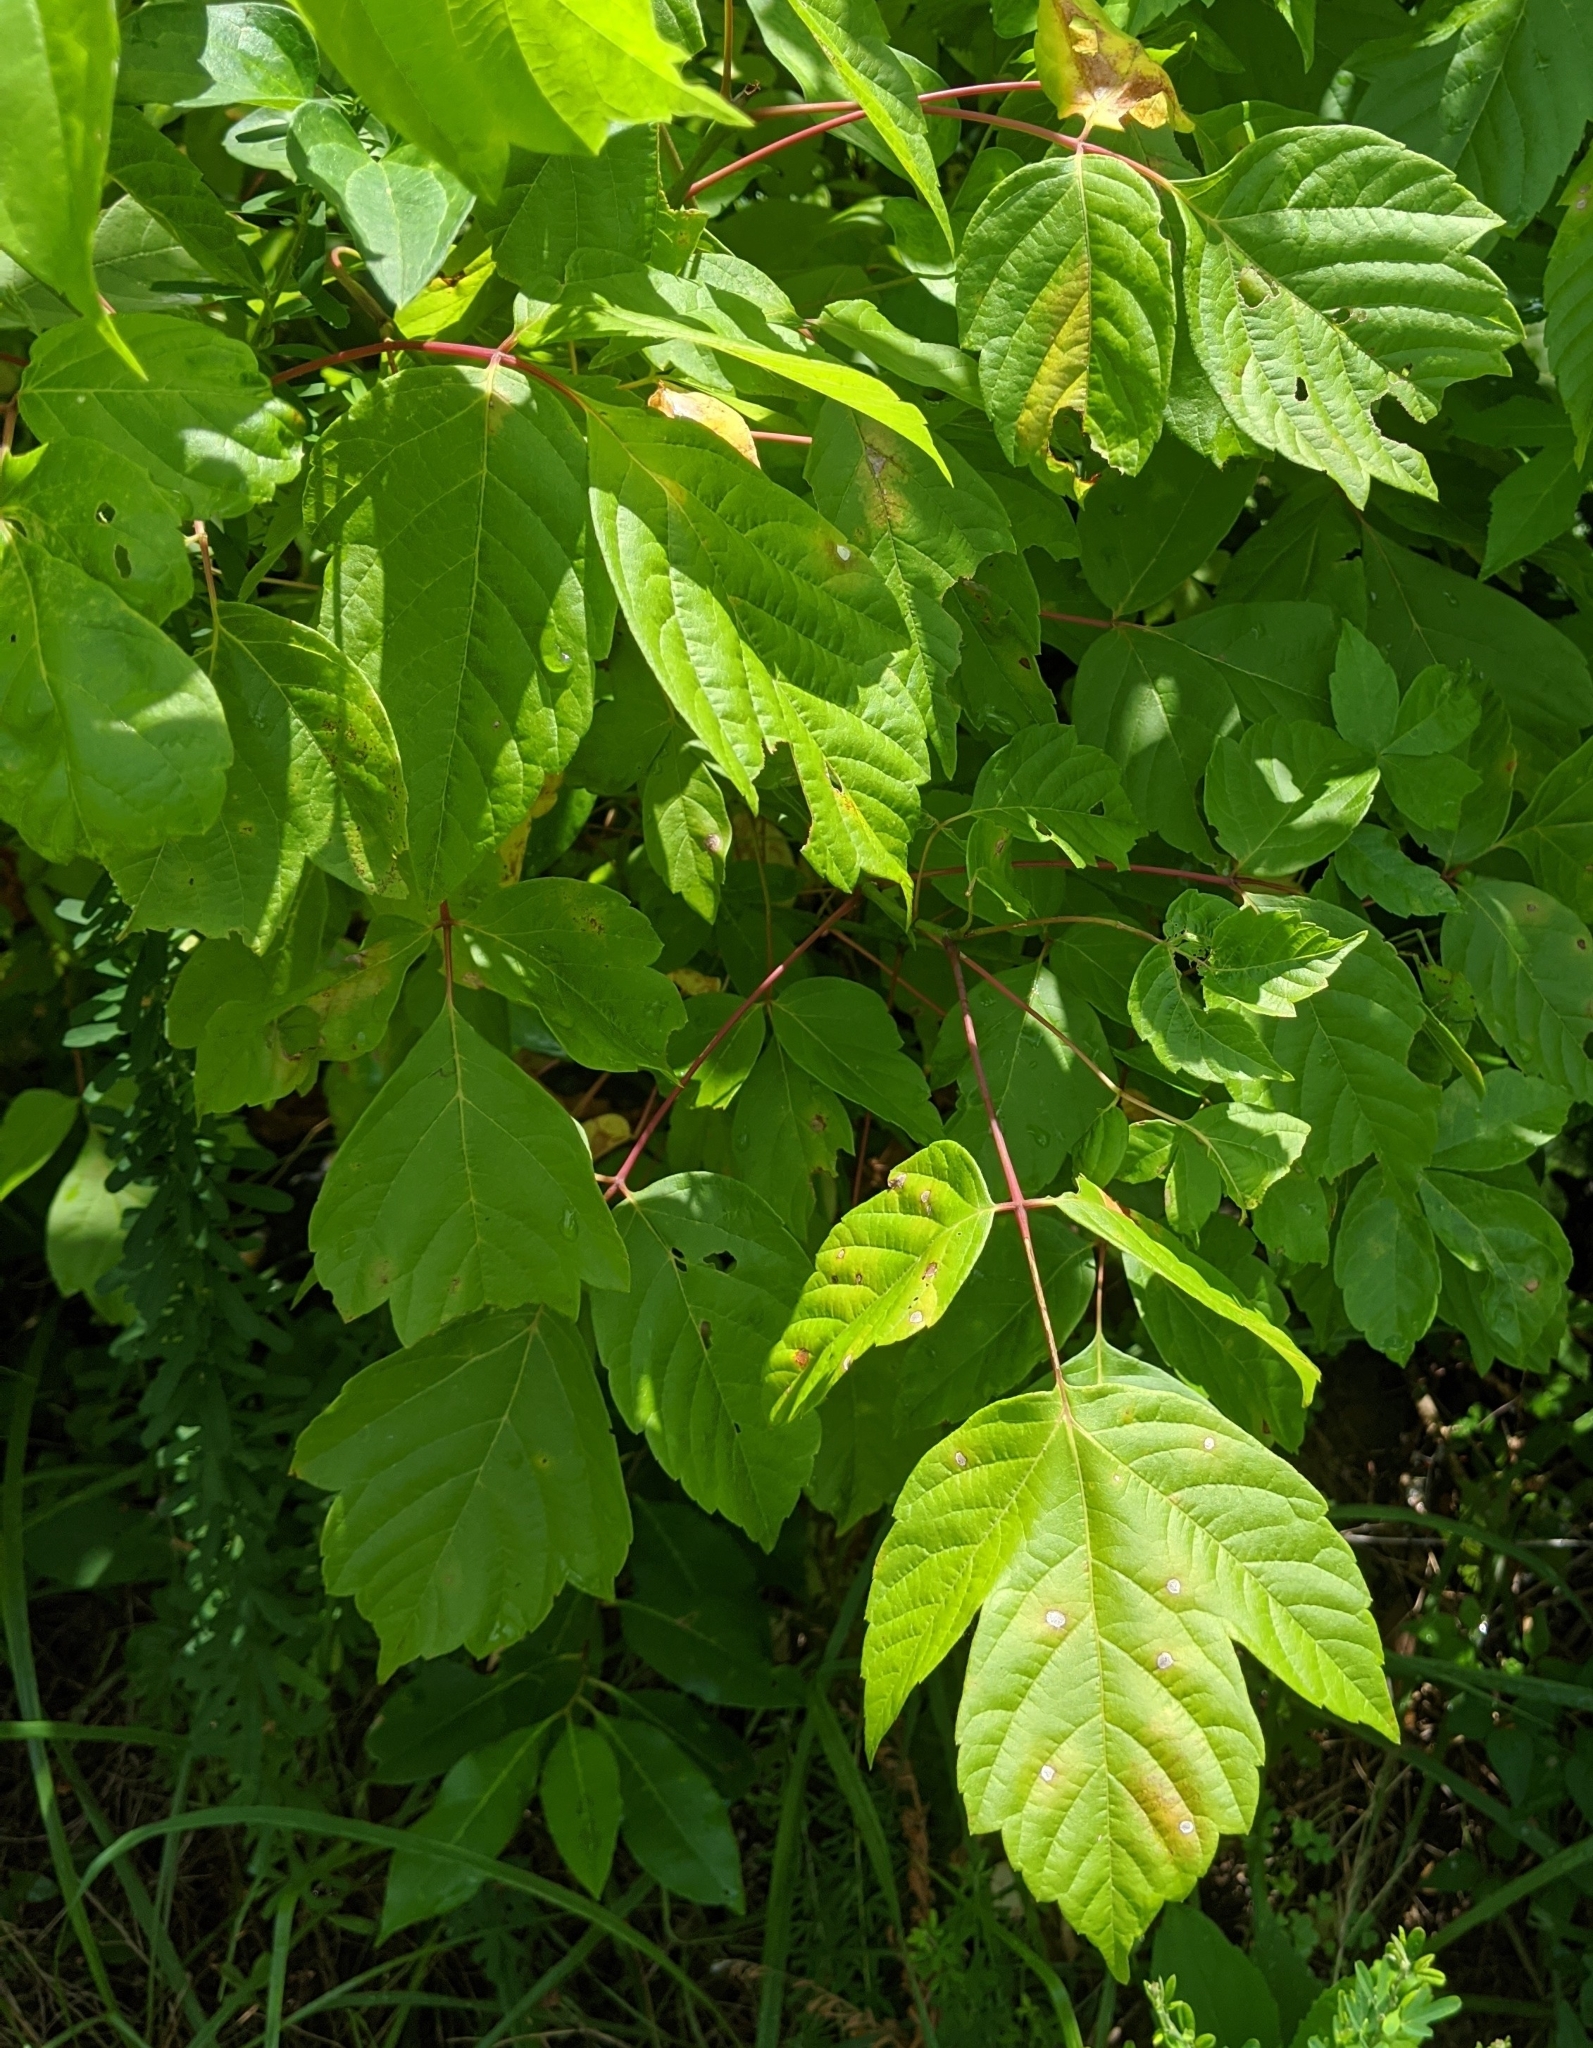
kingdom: Plantae
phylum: Tracheophyta
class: Magnoliopsida
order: Sapindales
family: Sapindaceae
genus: Acer
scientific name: Acer negundo
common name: Ashleaf maple
